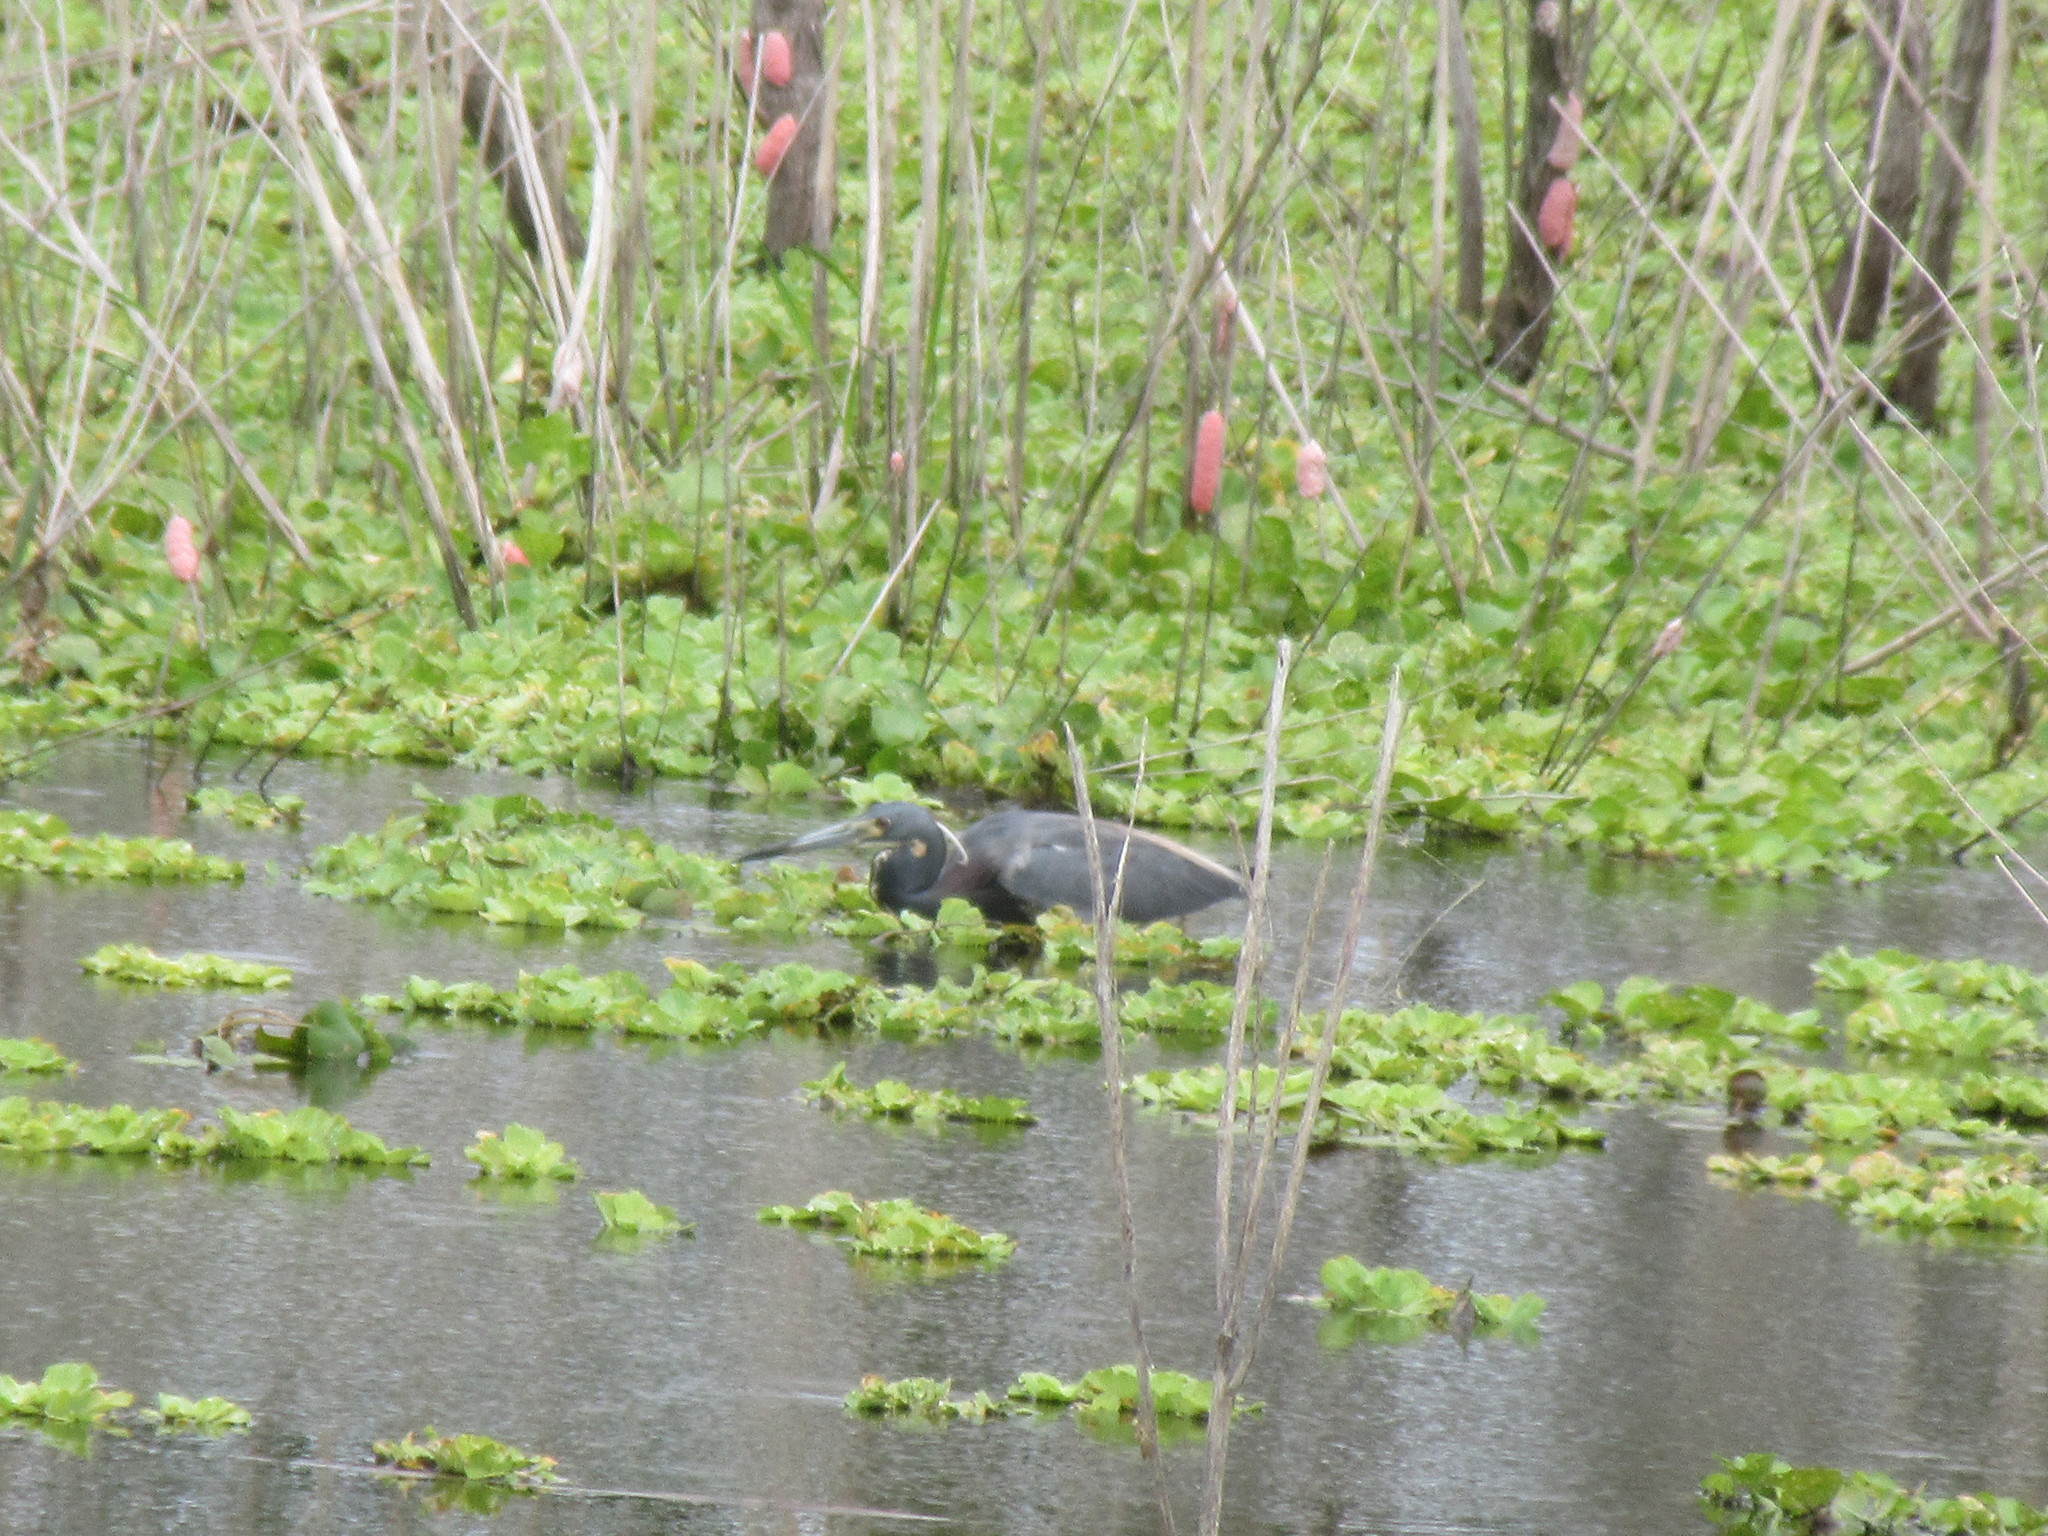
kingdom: Animalia
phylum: Chordata
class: Aves
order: Pelecaniformes
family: Ardeidae
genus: Egretta
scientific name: Egretta tricolor
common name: Tricolored heron
